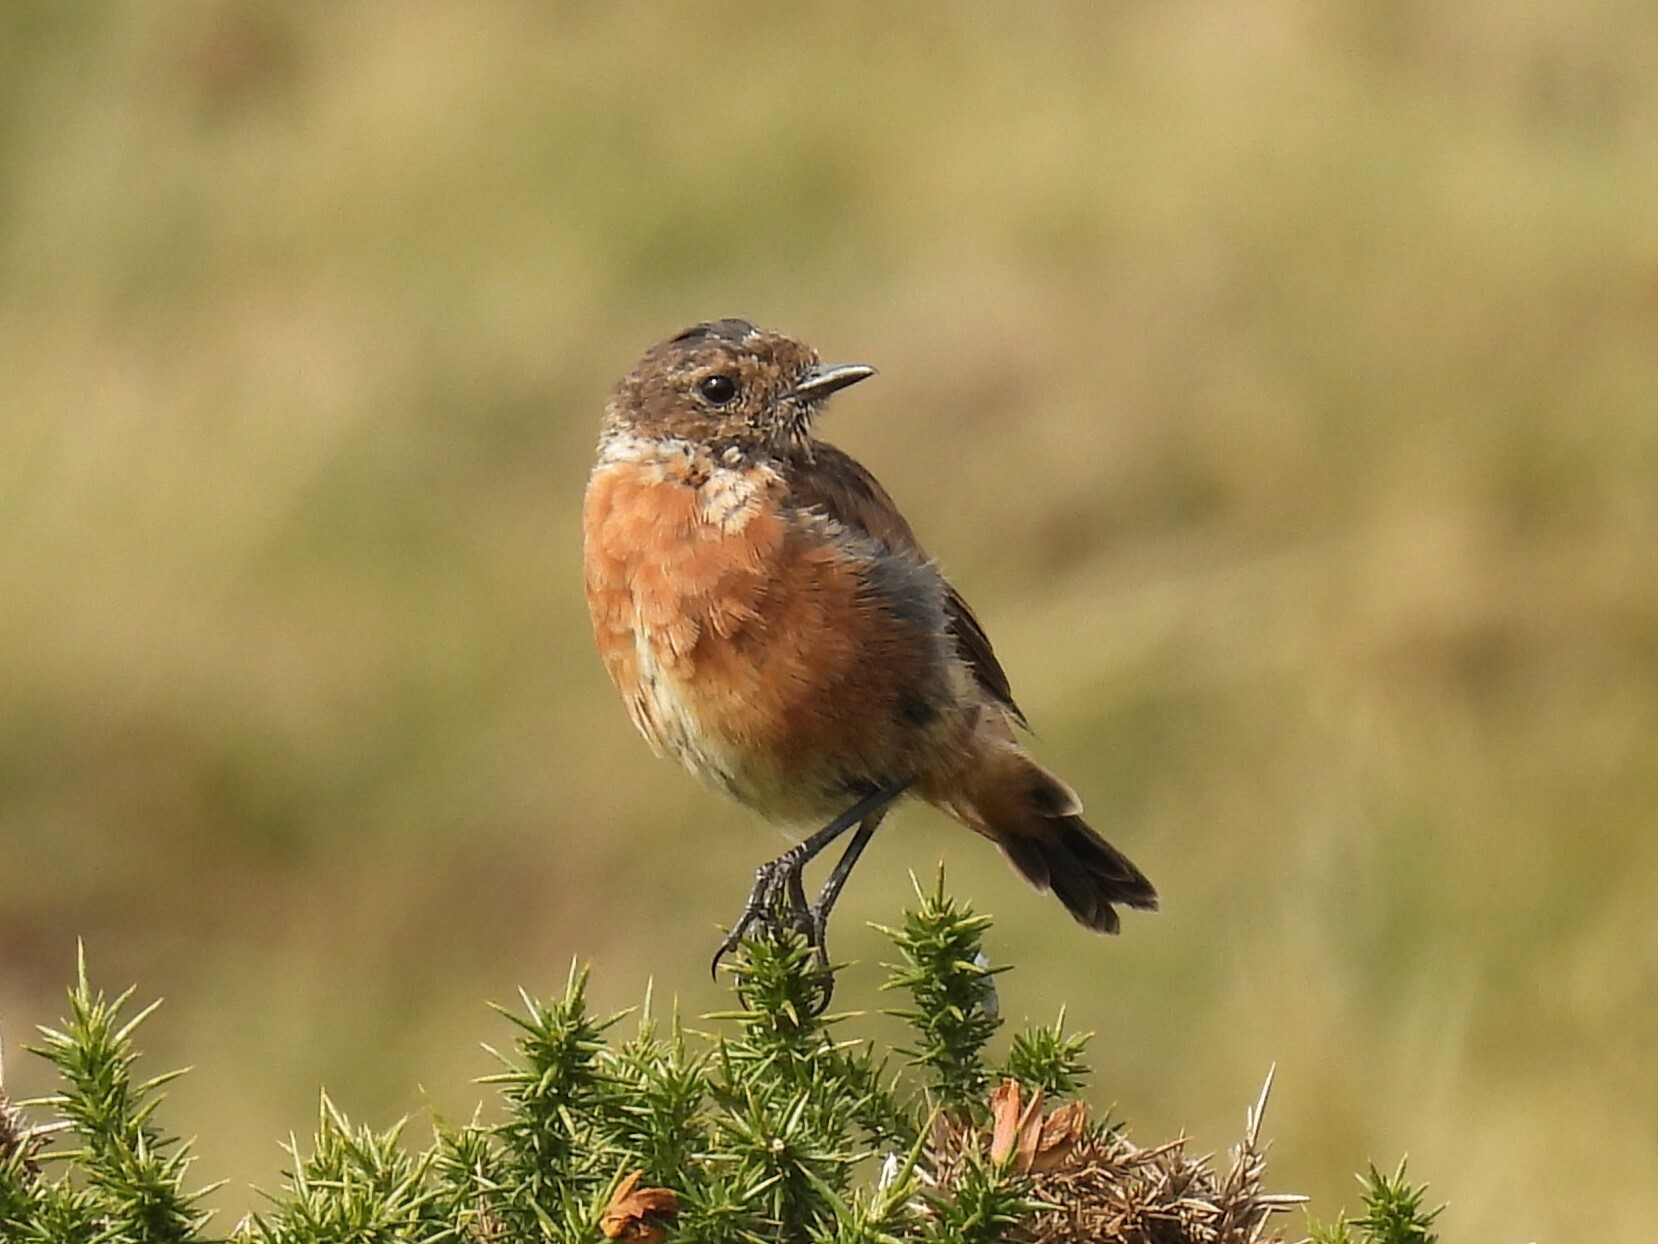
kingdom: Animalia
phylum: Chordata
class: Aves
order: Passeriformes
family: Muscicapidae
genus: Saxicola
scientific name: Saxicola rubicola
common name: European stonechat
